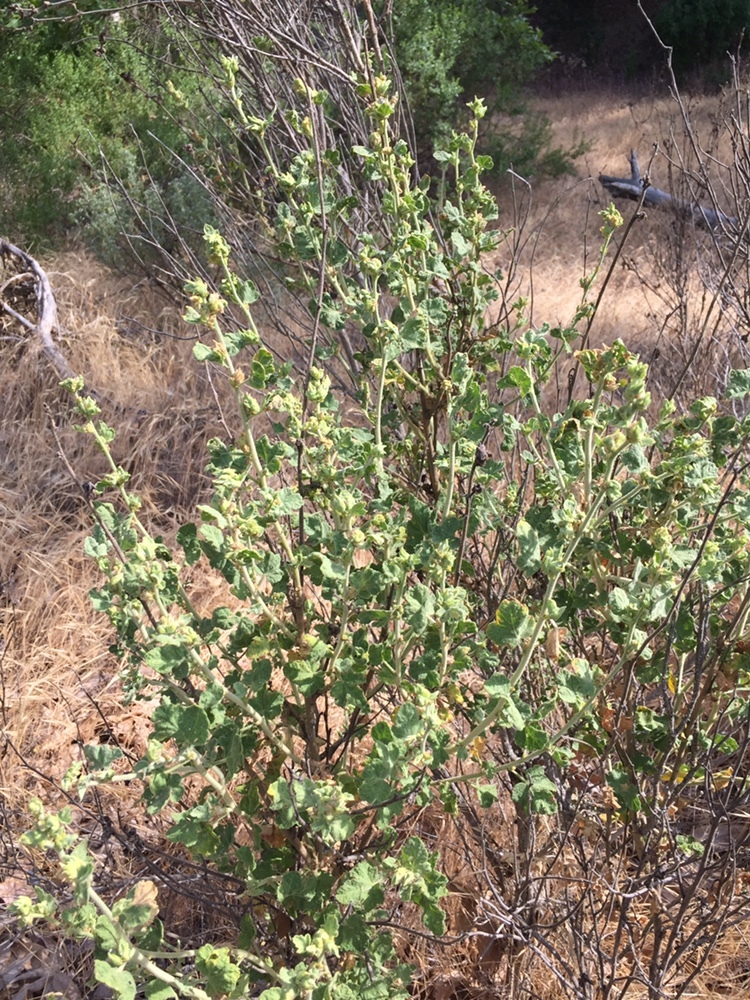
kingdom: Plantae
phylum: Tracheophyta
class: Magnoliopsida
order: Malvales
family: Malvaceae
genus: Malacothamnus
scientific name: Malacothamnus aboriginum
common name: Indian valley bush-mallow
